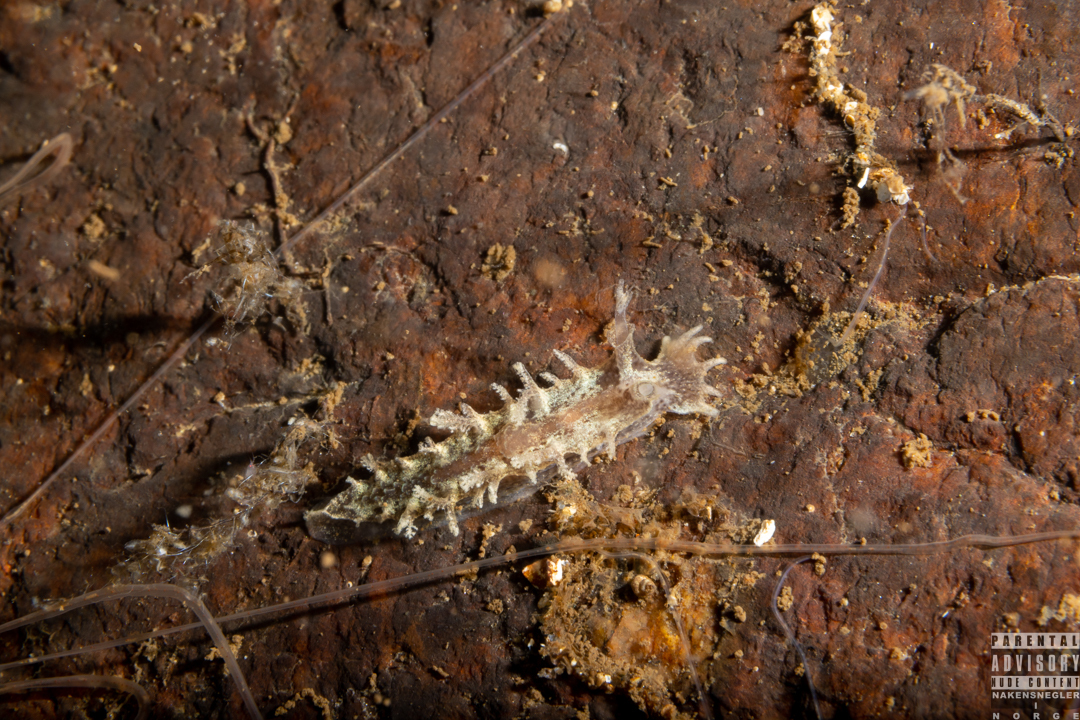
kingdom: Animalia
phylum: Mollusca
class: Gastropoda
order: Nudibranchia
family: Tritoniidae
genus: Duvaucelia
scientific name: Duvaucelia plebeia
